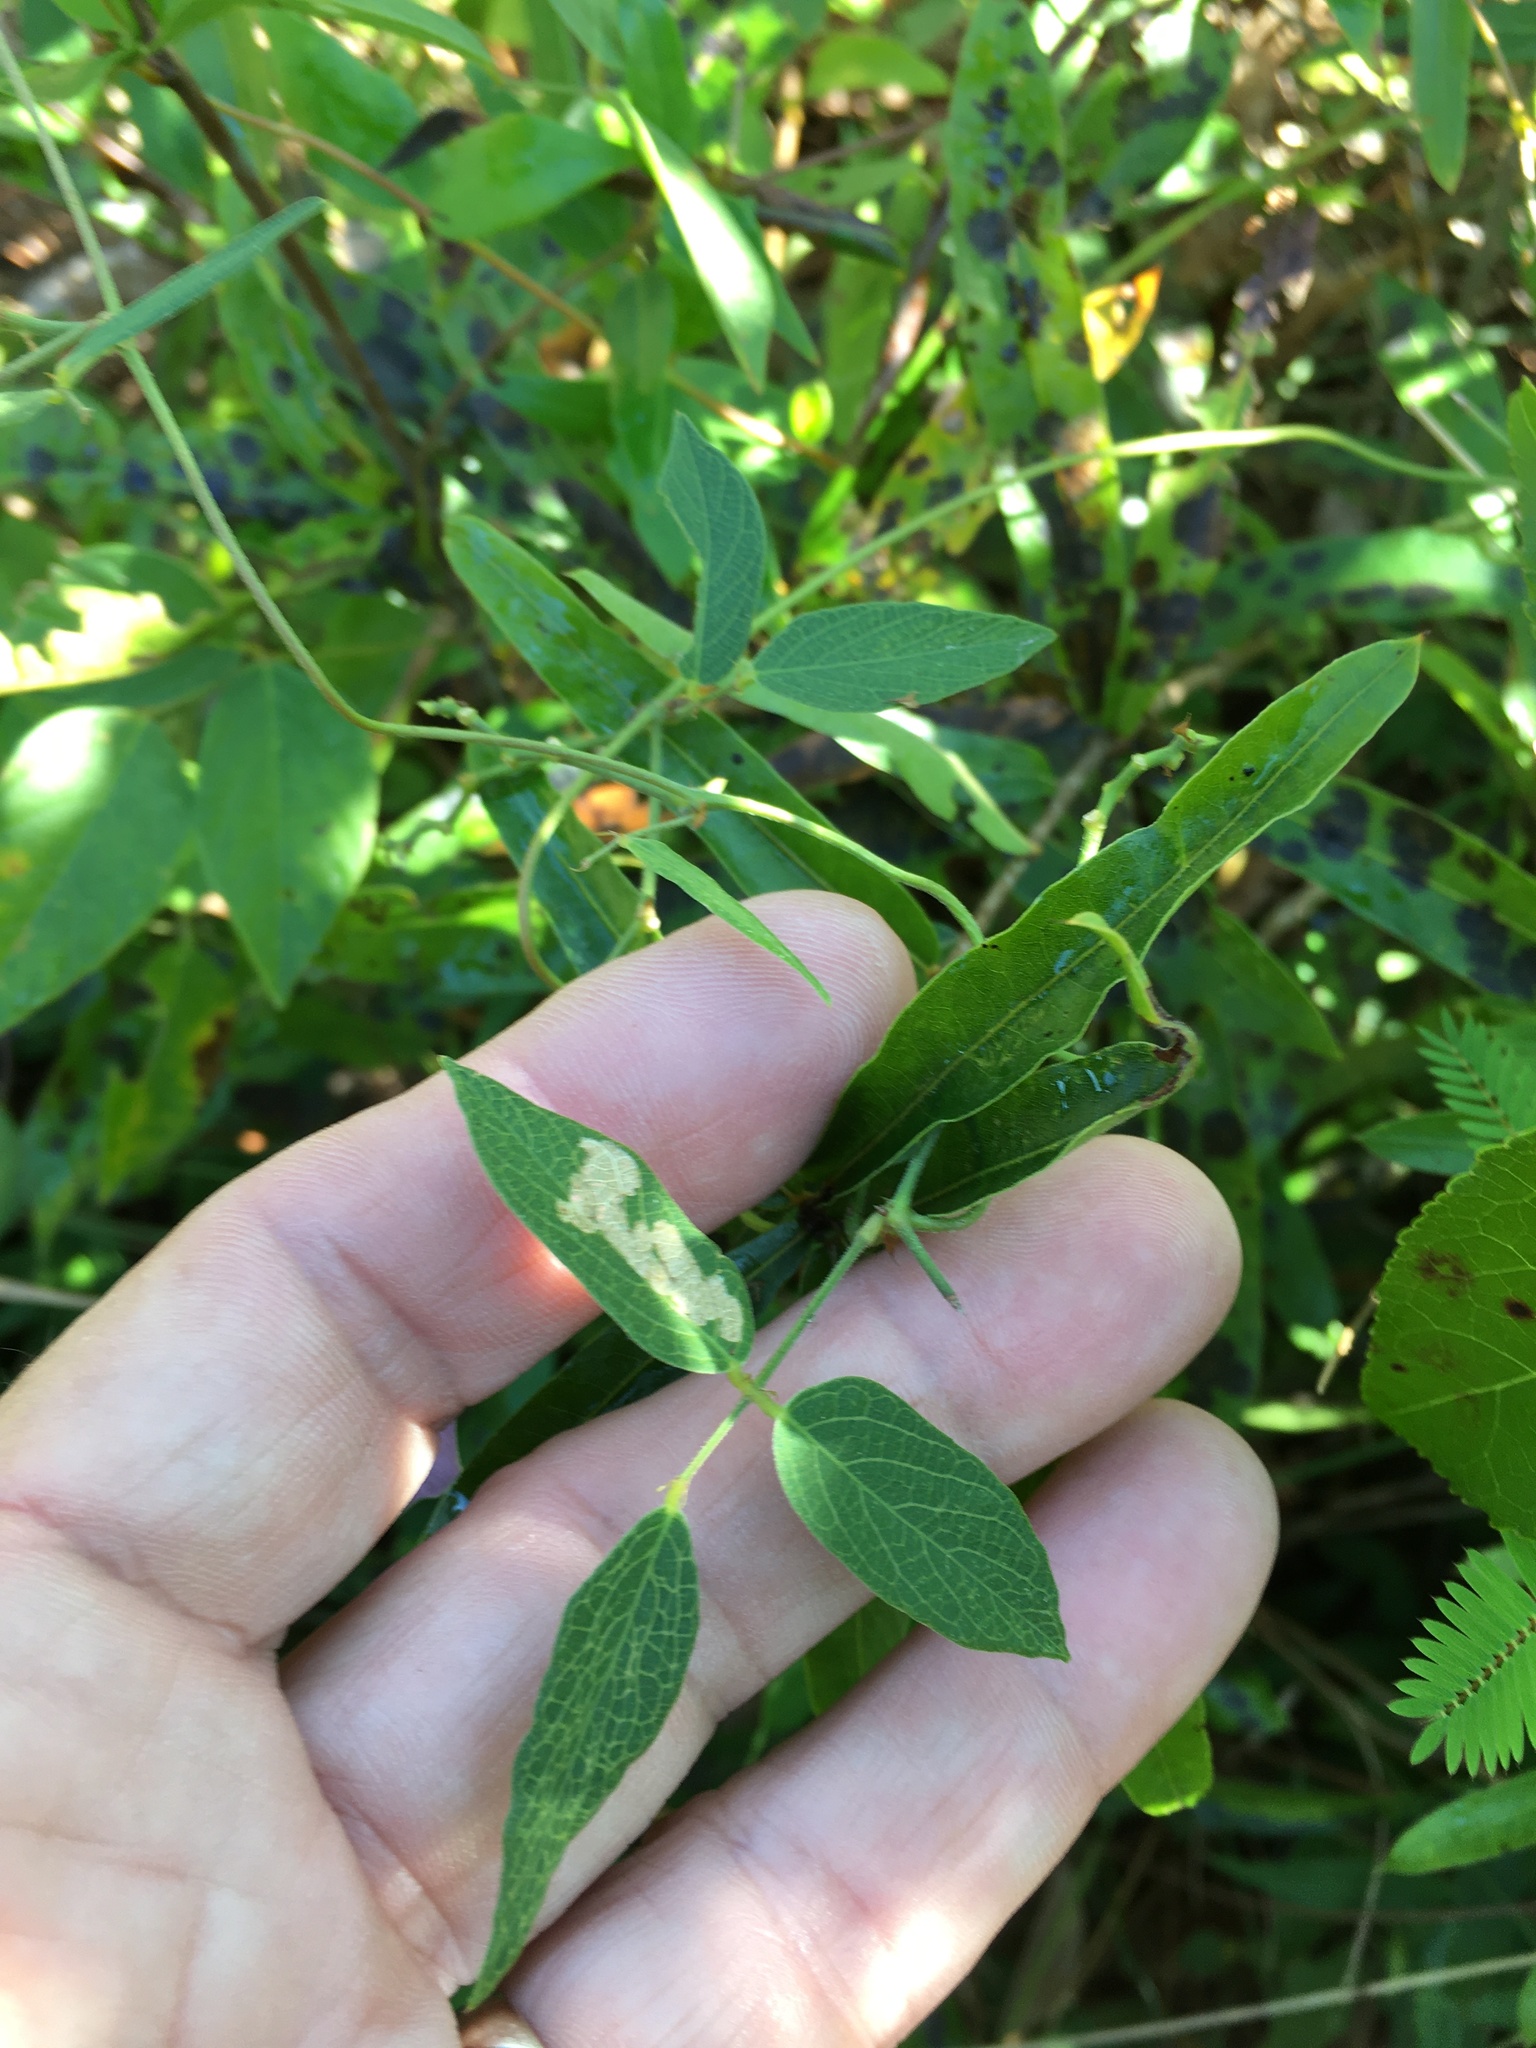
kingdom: Plantae
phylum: Tracheophyta
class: Magnoliopsida
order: Fabales
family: Fabaceae
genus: Centrosema
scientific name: Centrosema virginianum
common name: Butterfly-pea
